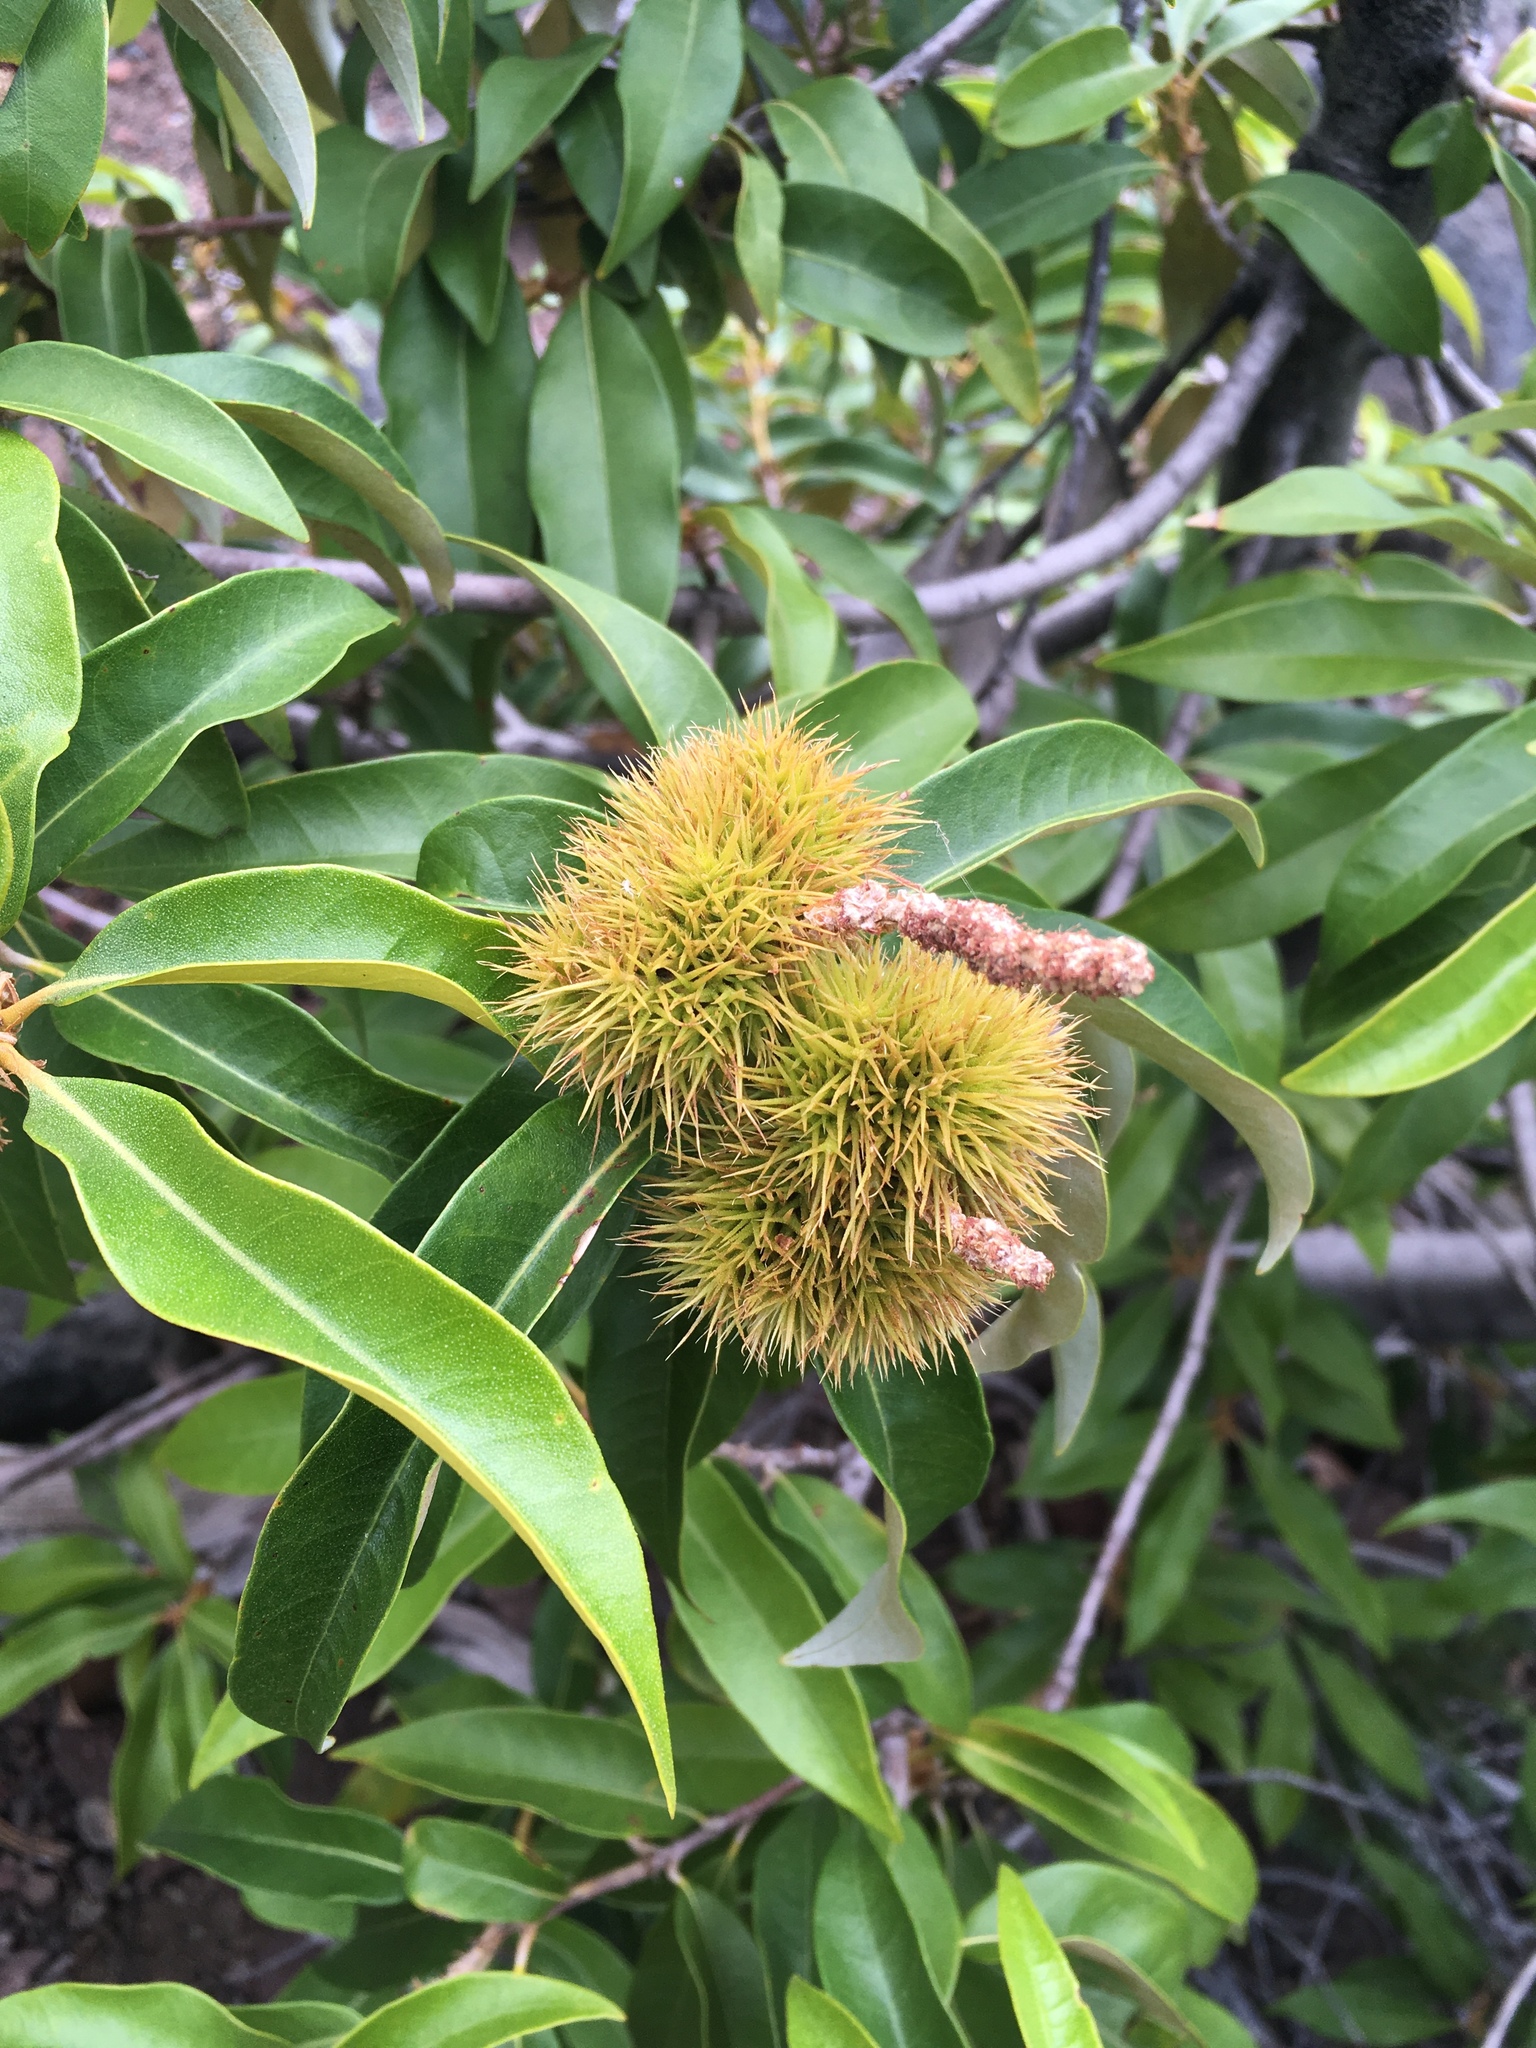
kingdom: Plantae
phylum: Tracheophyta
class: Magnoliopsida
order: Fagales
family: Fagaceae
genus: Chrysolepis
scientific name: Chrysolepis chrysophylla
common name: Giant chinquapin
